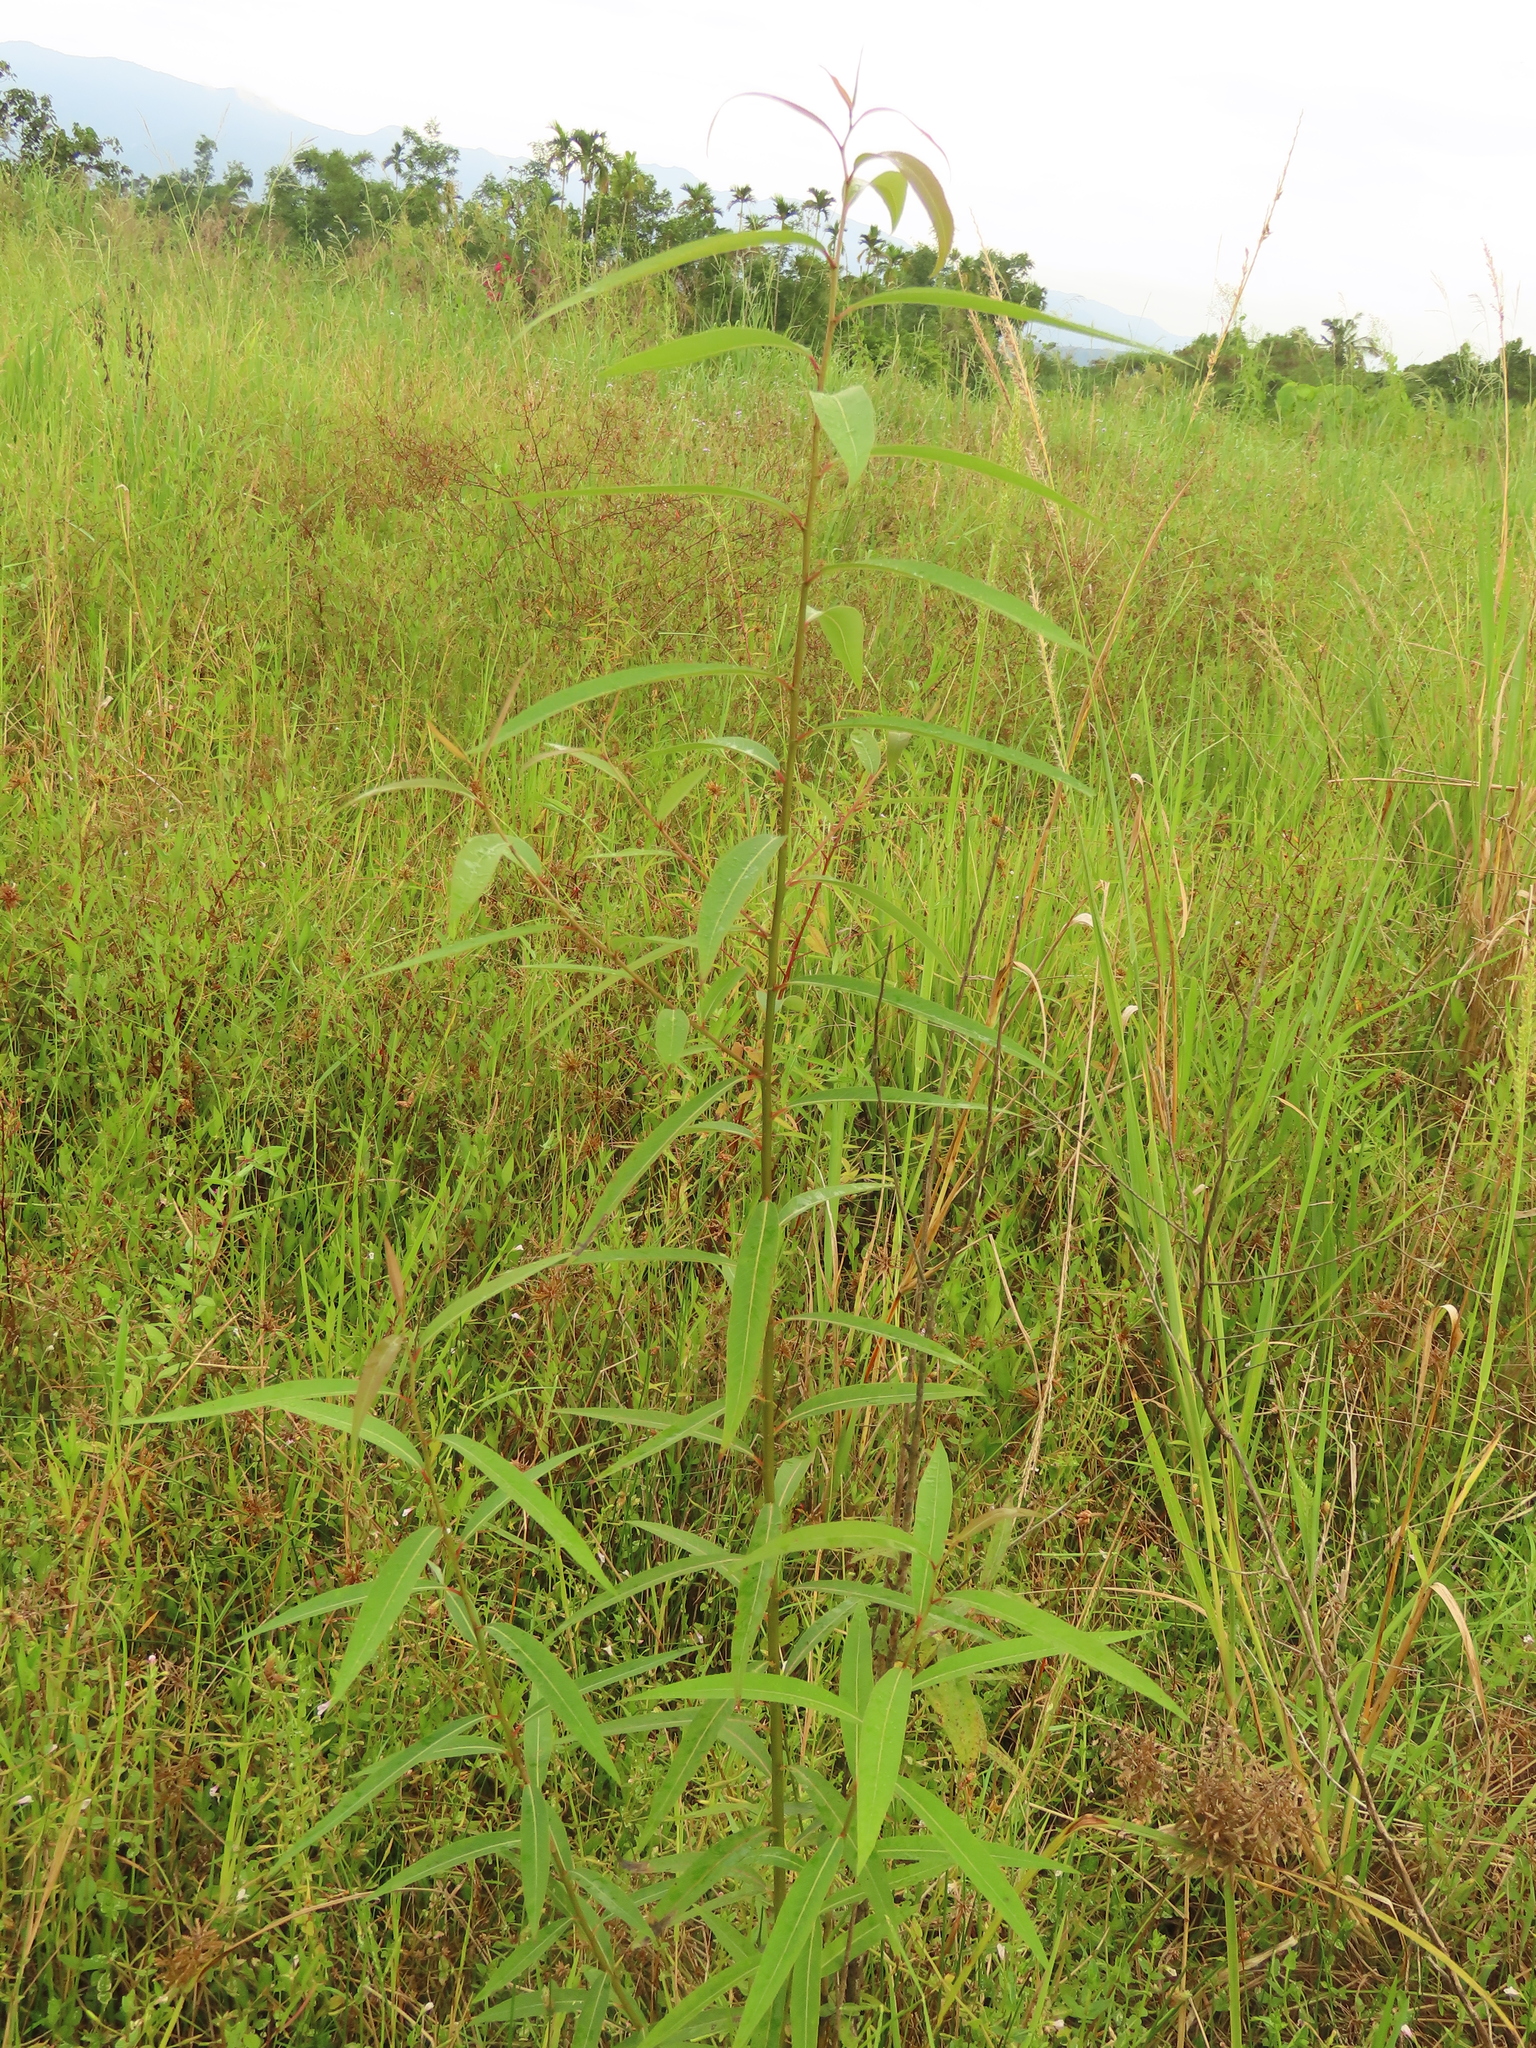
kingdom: Plantae
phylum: Tracheophyta
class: Magnoliopsida
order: Malpighiales
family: Salicaceae
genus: Salix
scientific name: Salix mesnyi
